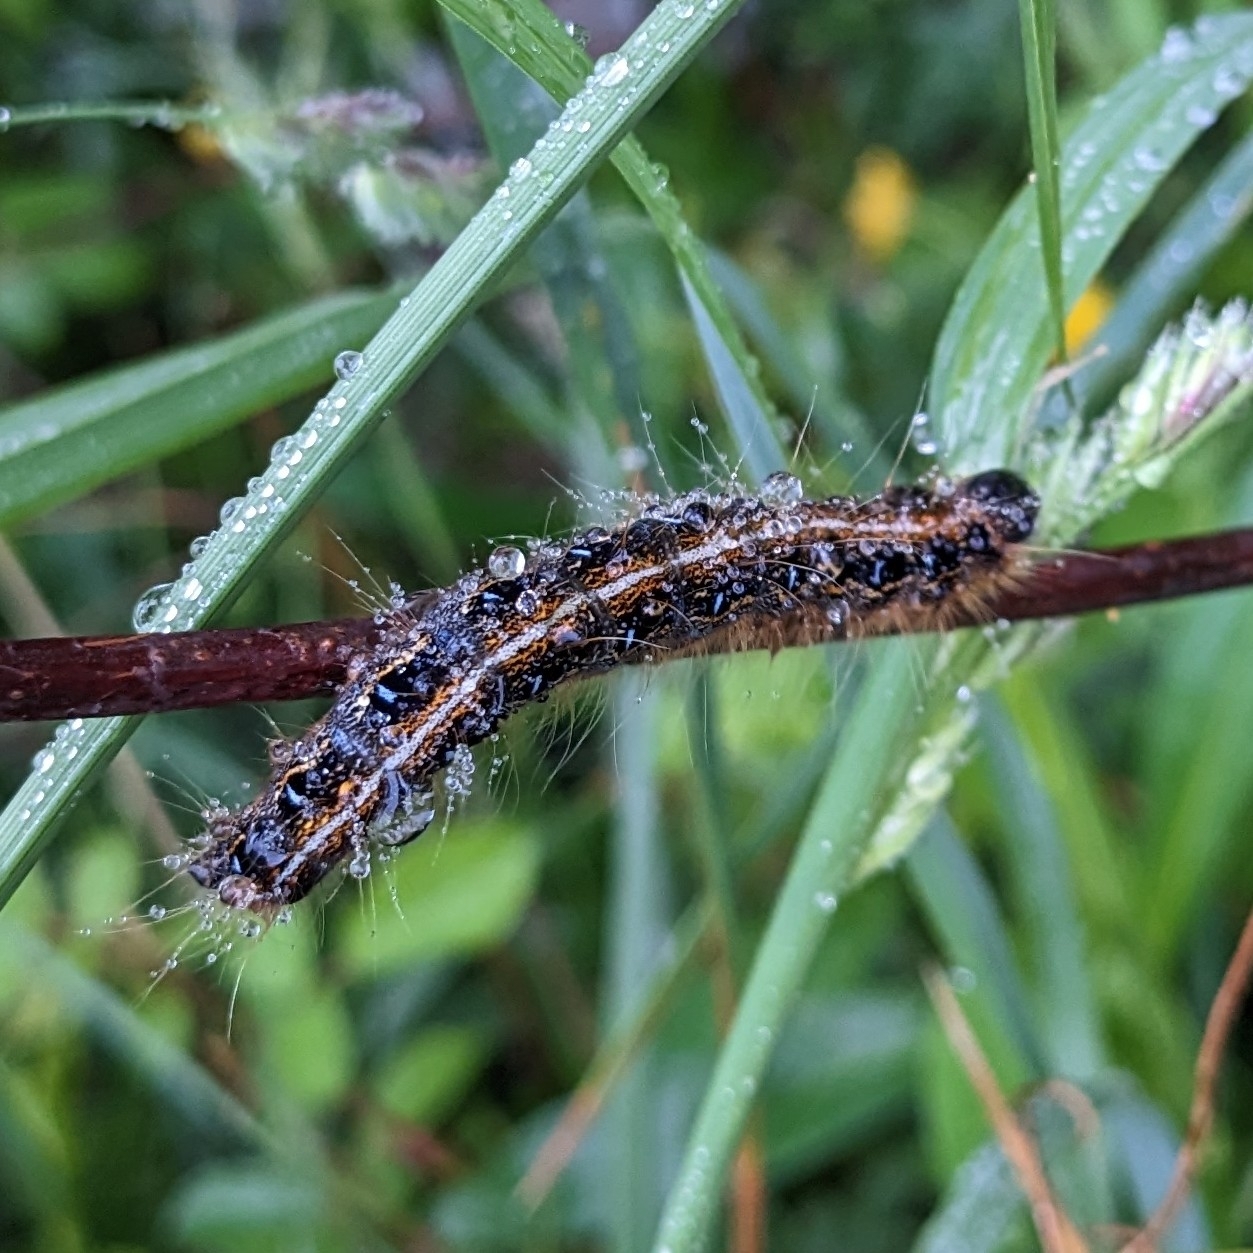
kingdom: Animalia
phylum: Arthropoda
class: Insecta
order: Lepidoptera
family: Lasiocampidae
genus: Malacosoma
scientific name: Malacosoma americana
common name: Eastern tent caterpillar moth
